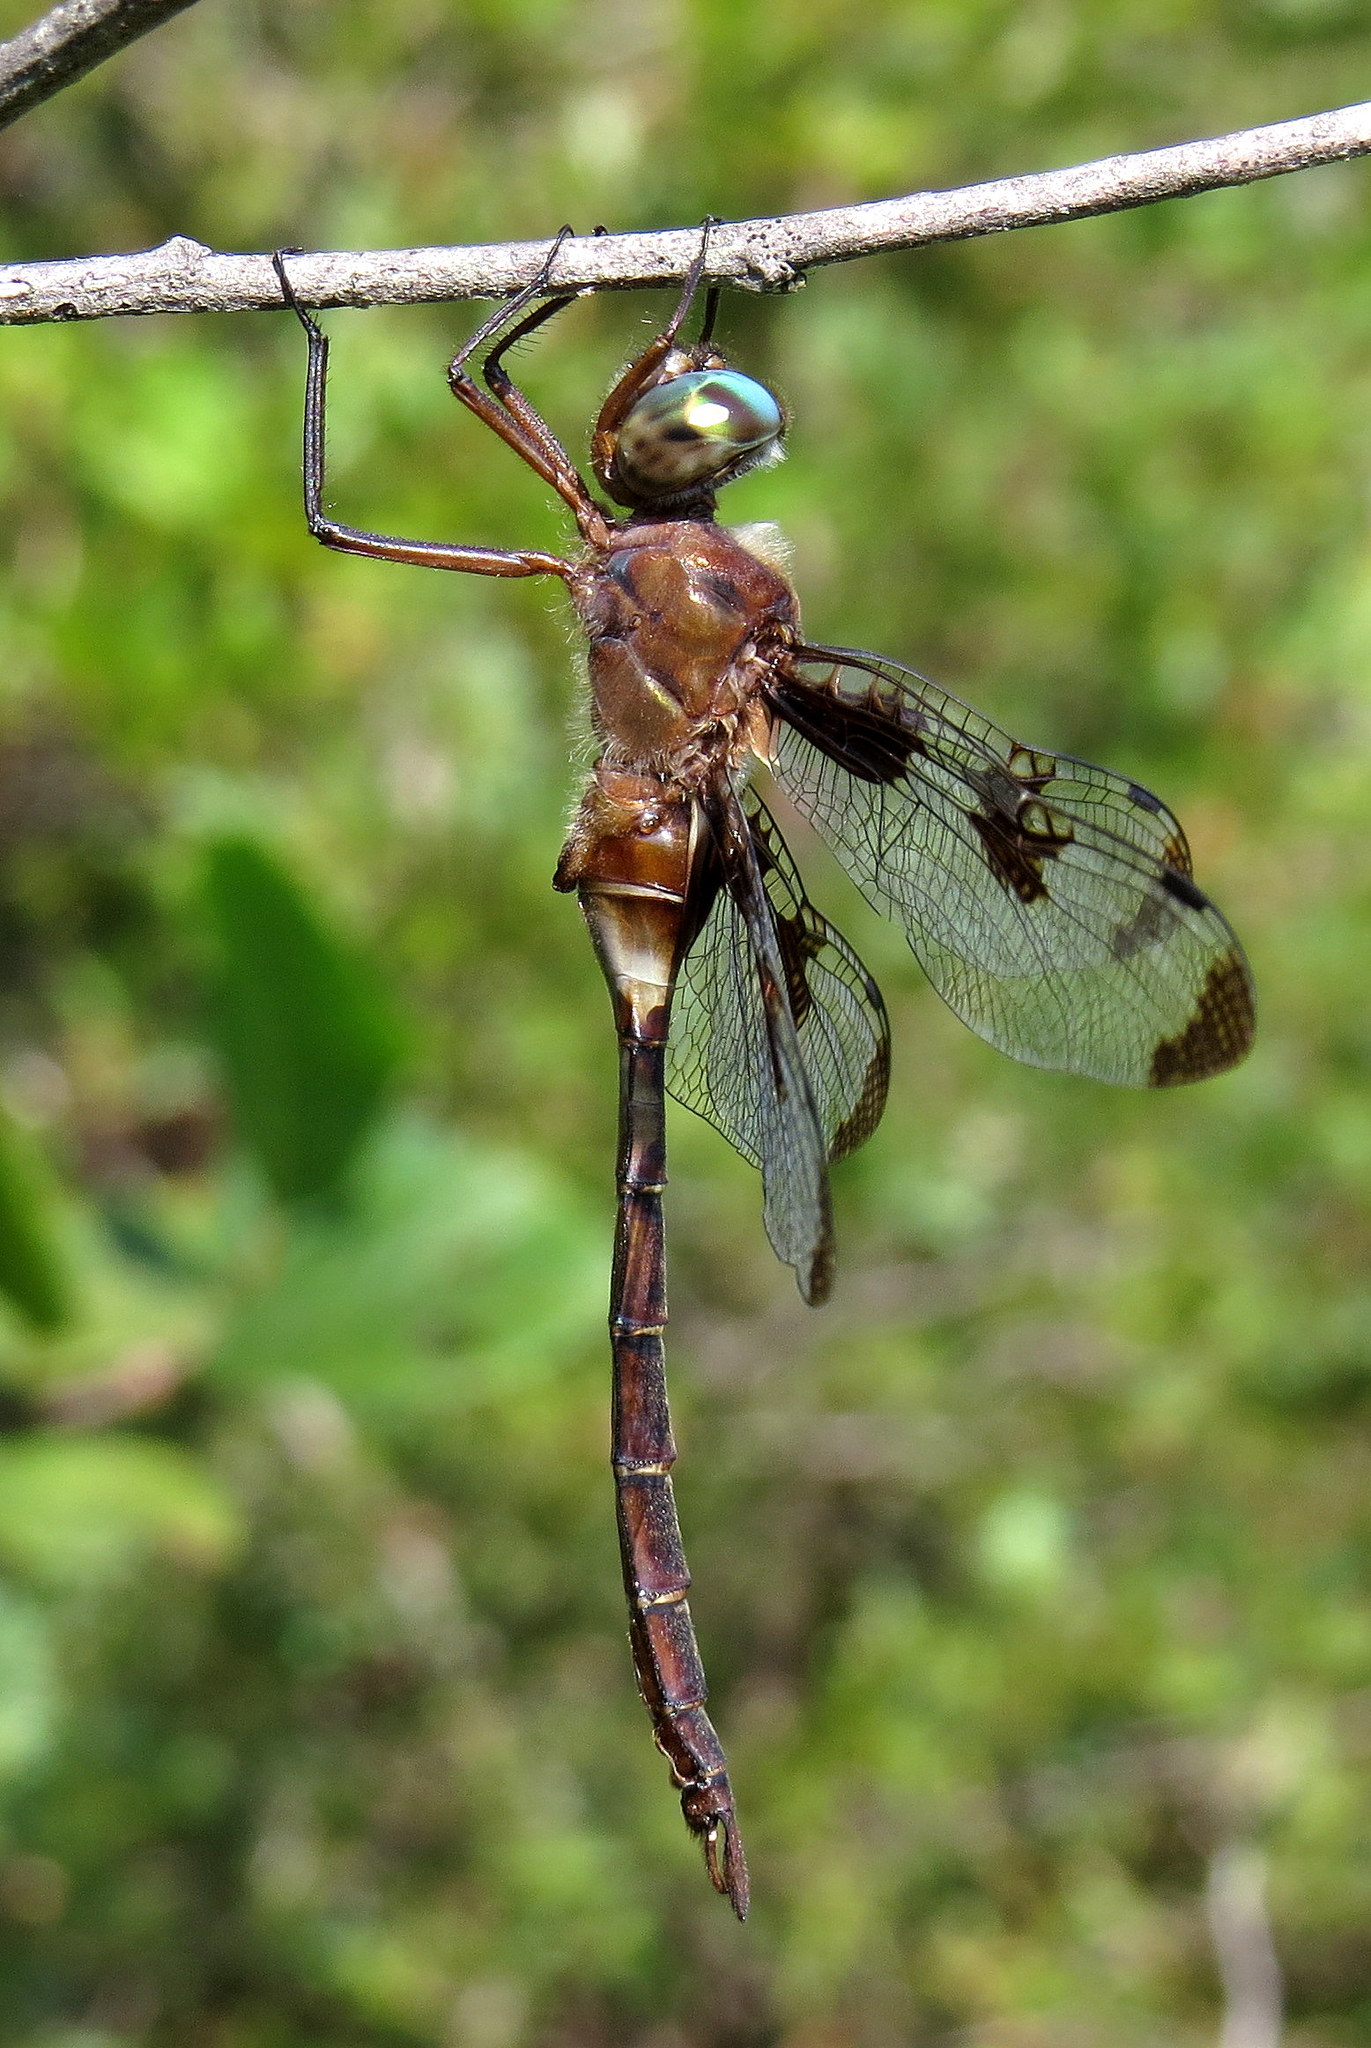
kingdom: Animalia
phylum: Arthropoda
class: Insecta
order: Odonata
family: Corduliidae
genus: Epitheca
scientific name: Epitheca princeps
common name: Prince baskettail
